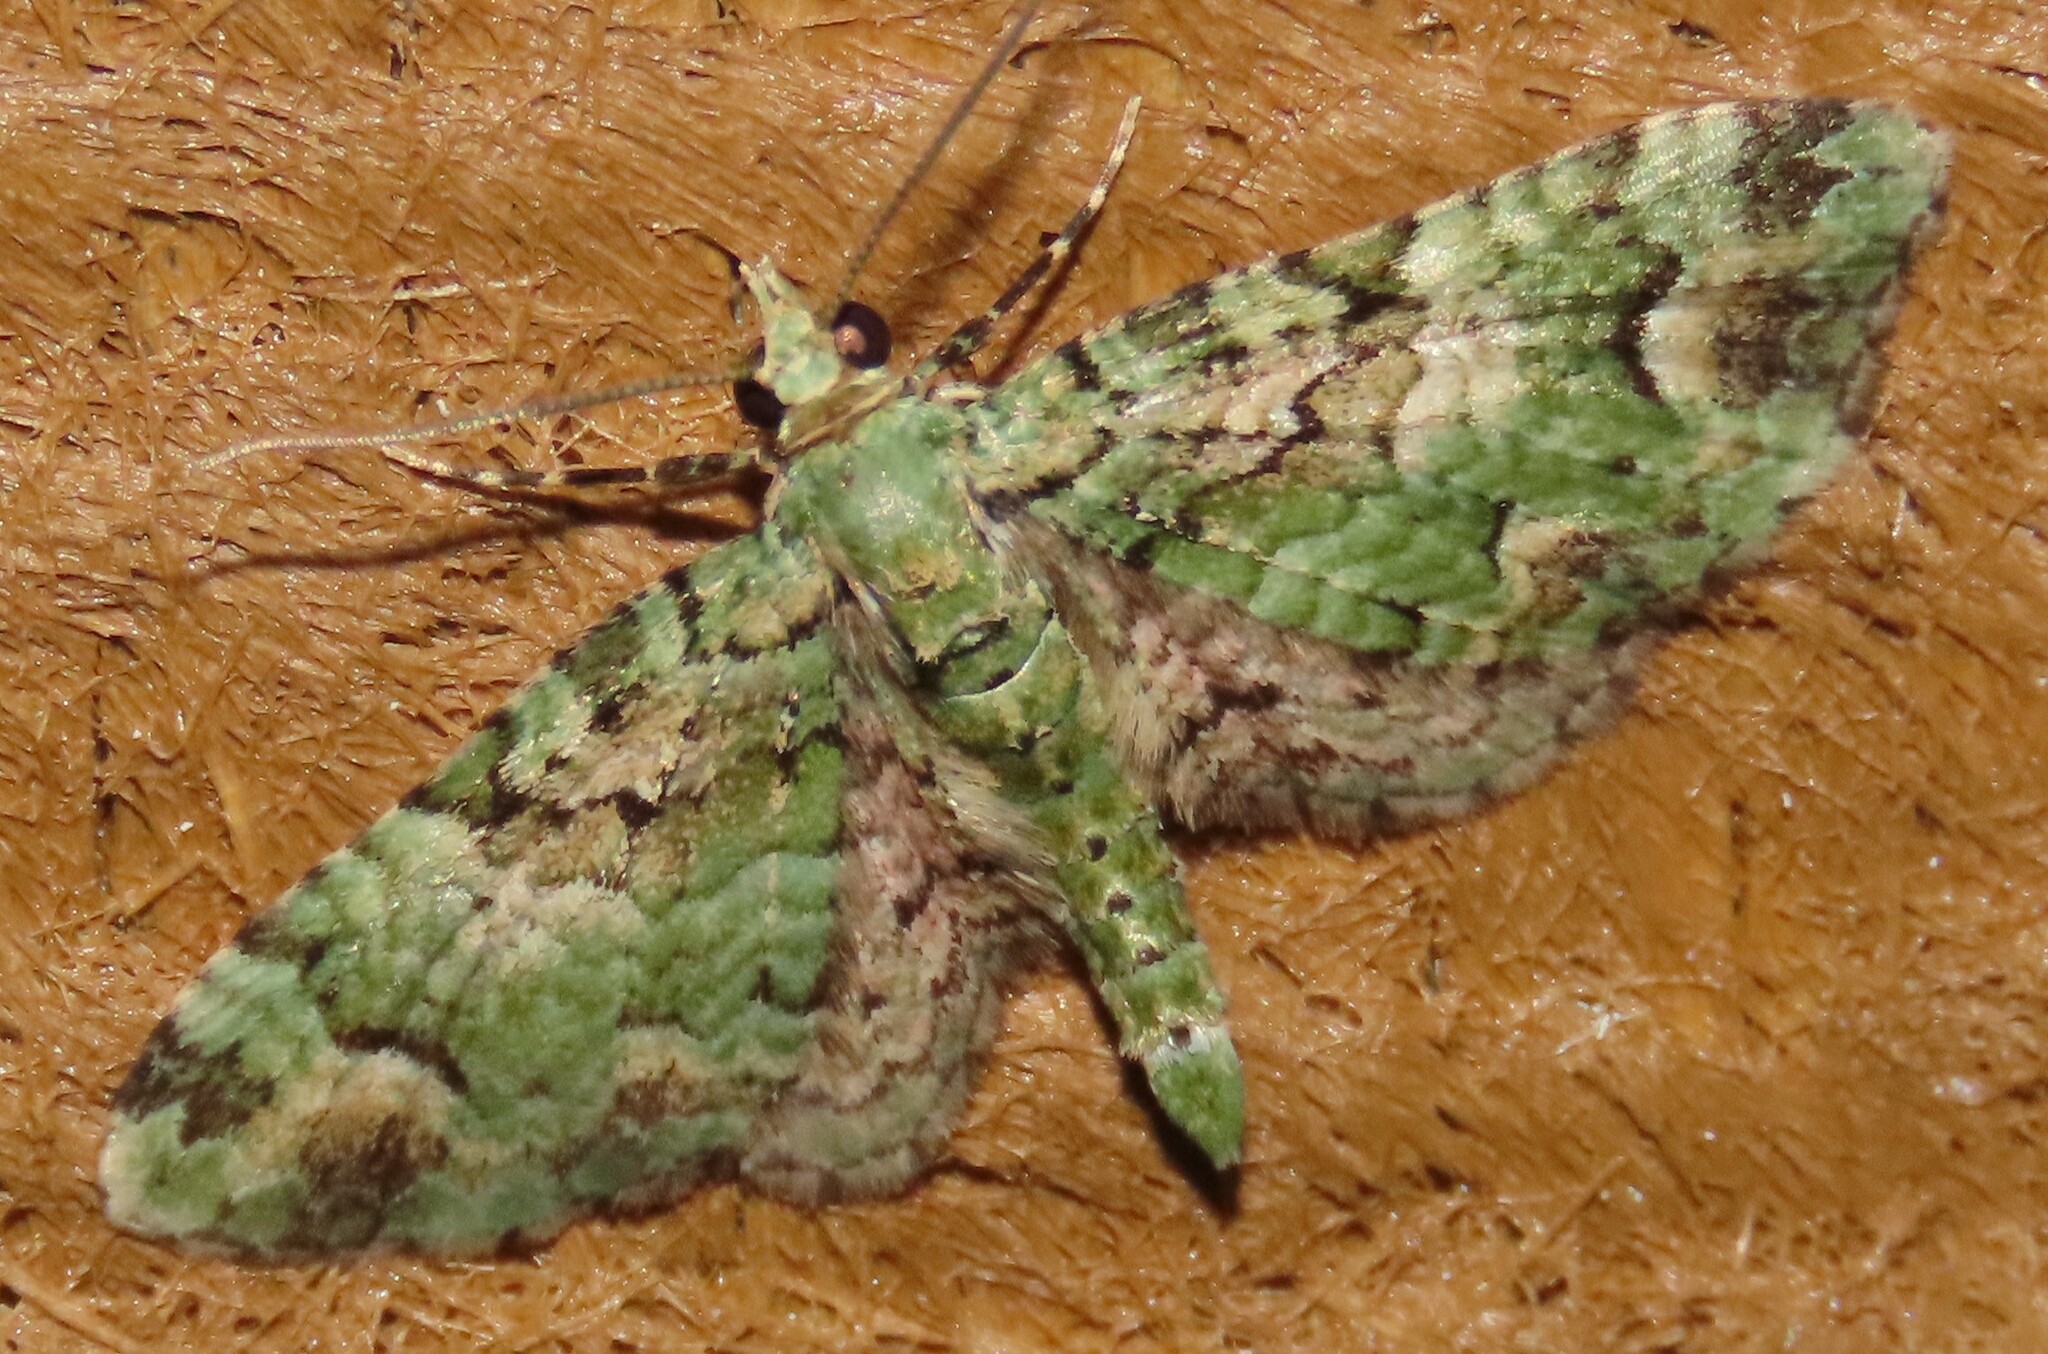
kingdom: Animalia
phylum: Arthropoda
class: Insecta
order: Lepidoptera
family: Geometridae
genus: Pasiphila
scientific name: Pasiphila semochlora
